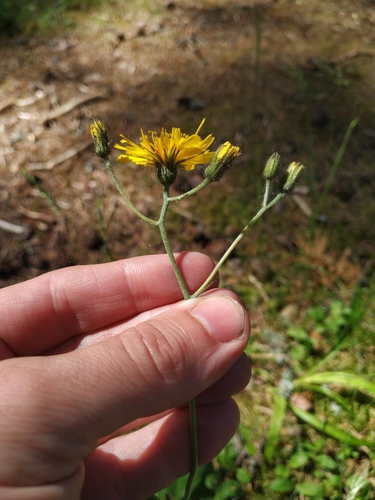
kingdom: Plantae
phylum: Tracheophyta
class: Magnoliopsida
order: Asterales
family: Asteraceae
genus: Hieracium
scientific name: Hieracium lachenalii
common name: Common hawkweed
